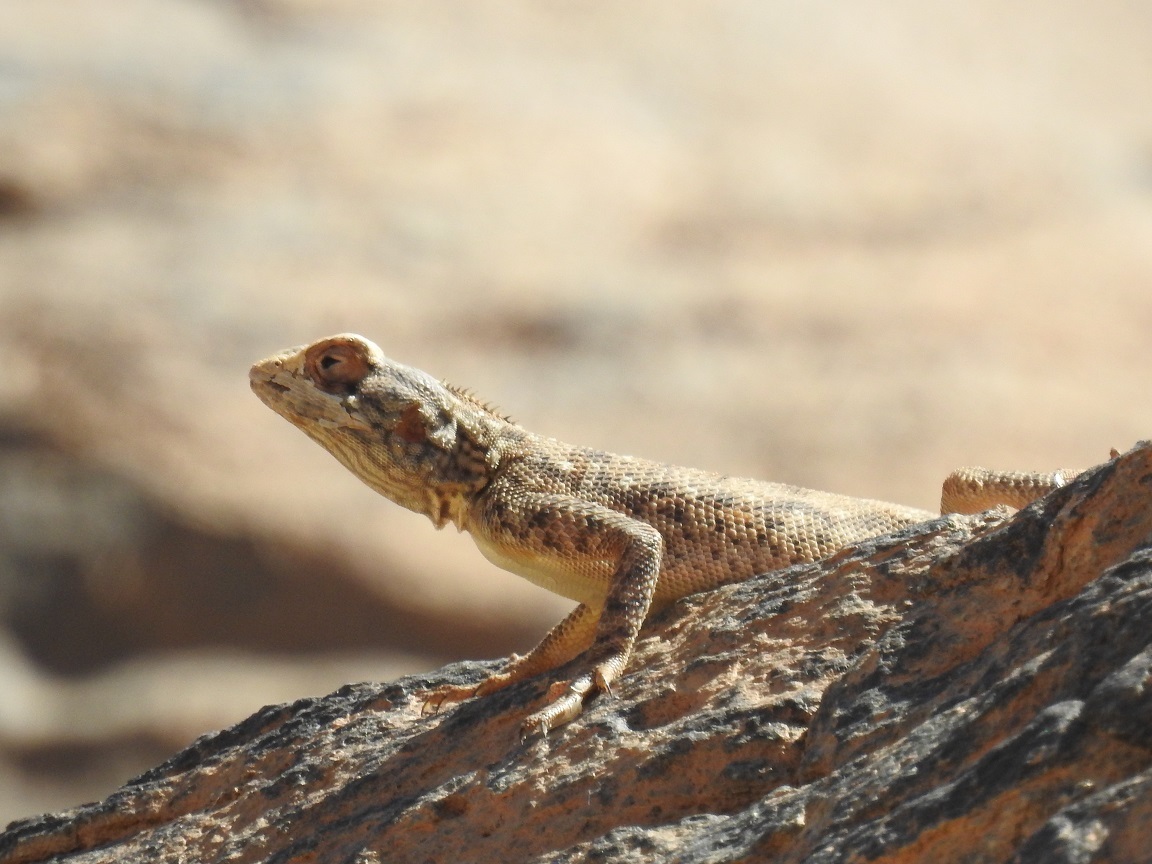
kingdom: Animalia
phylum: Chordata
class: Squamata
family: Agamidae
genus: Agama
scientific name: Agama tassiliensis
